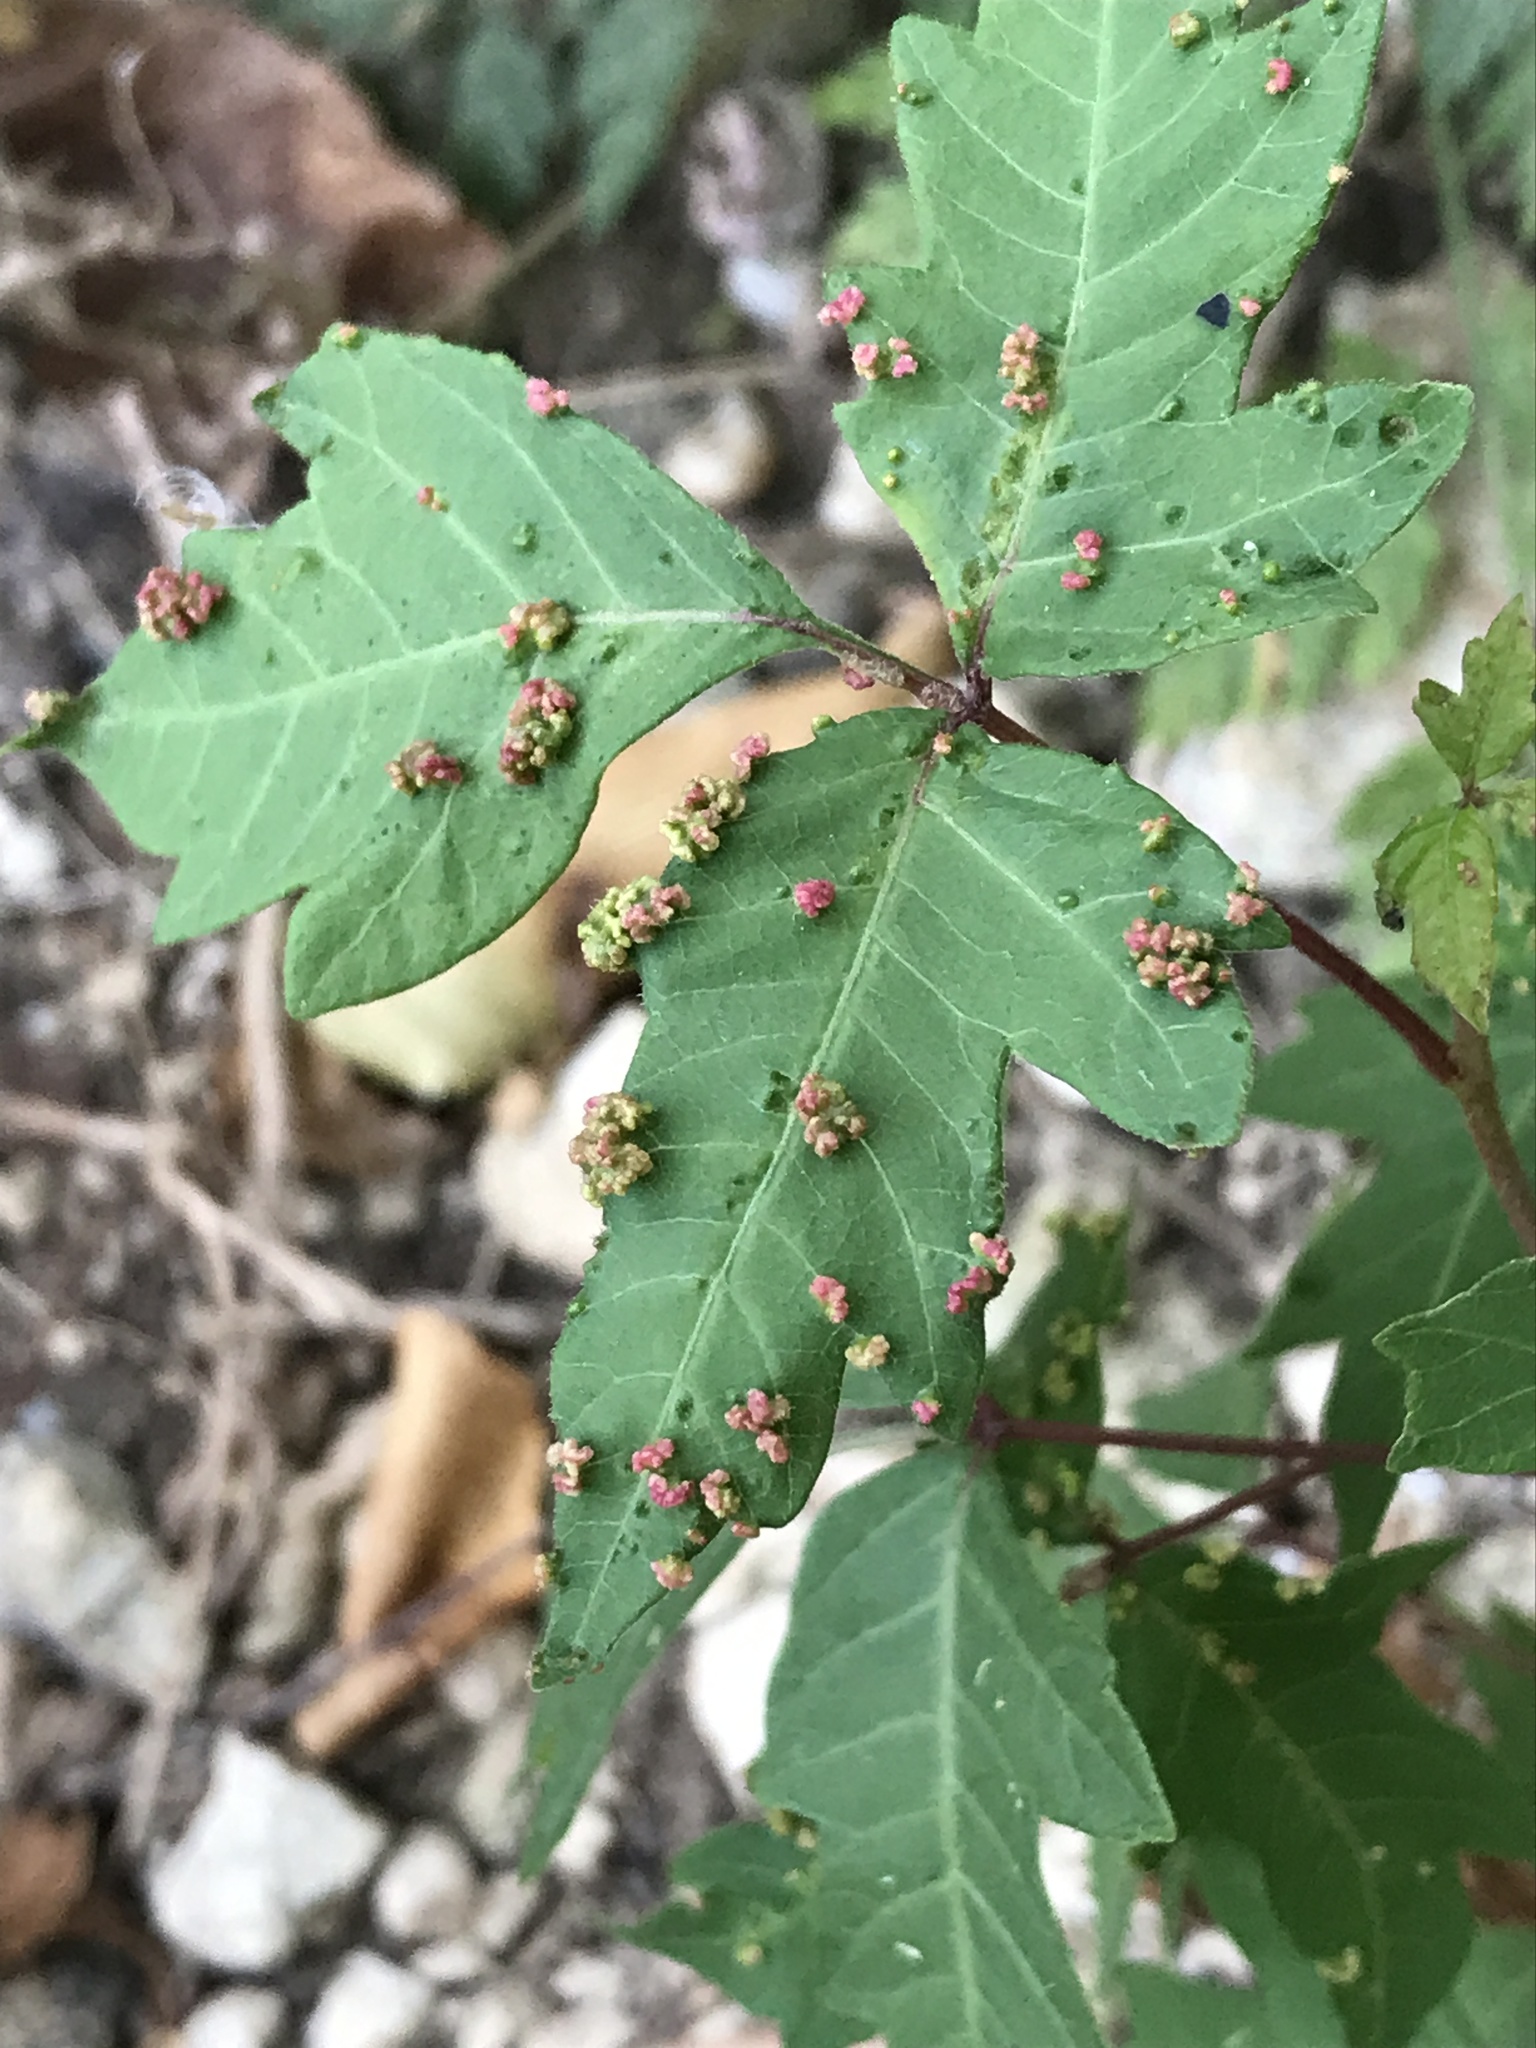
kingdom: Animalia
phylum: Arthropoda
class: Arachnida
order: Trombidiformes
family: Eriophyidae
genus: Aculops
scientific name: Aculops
